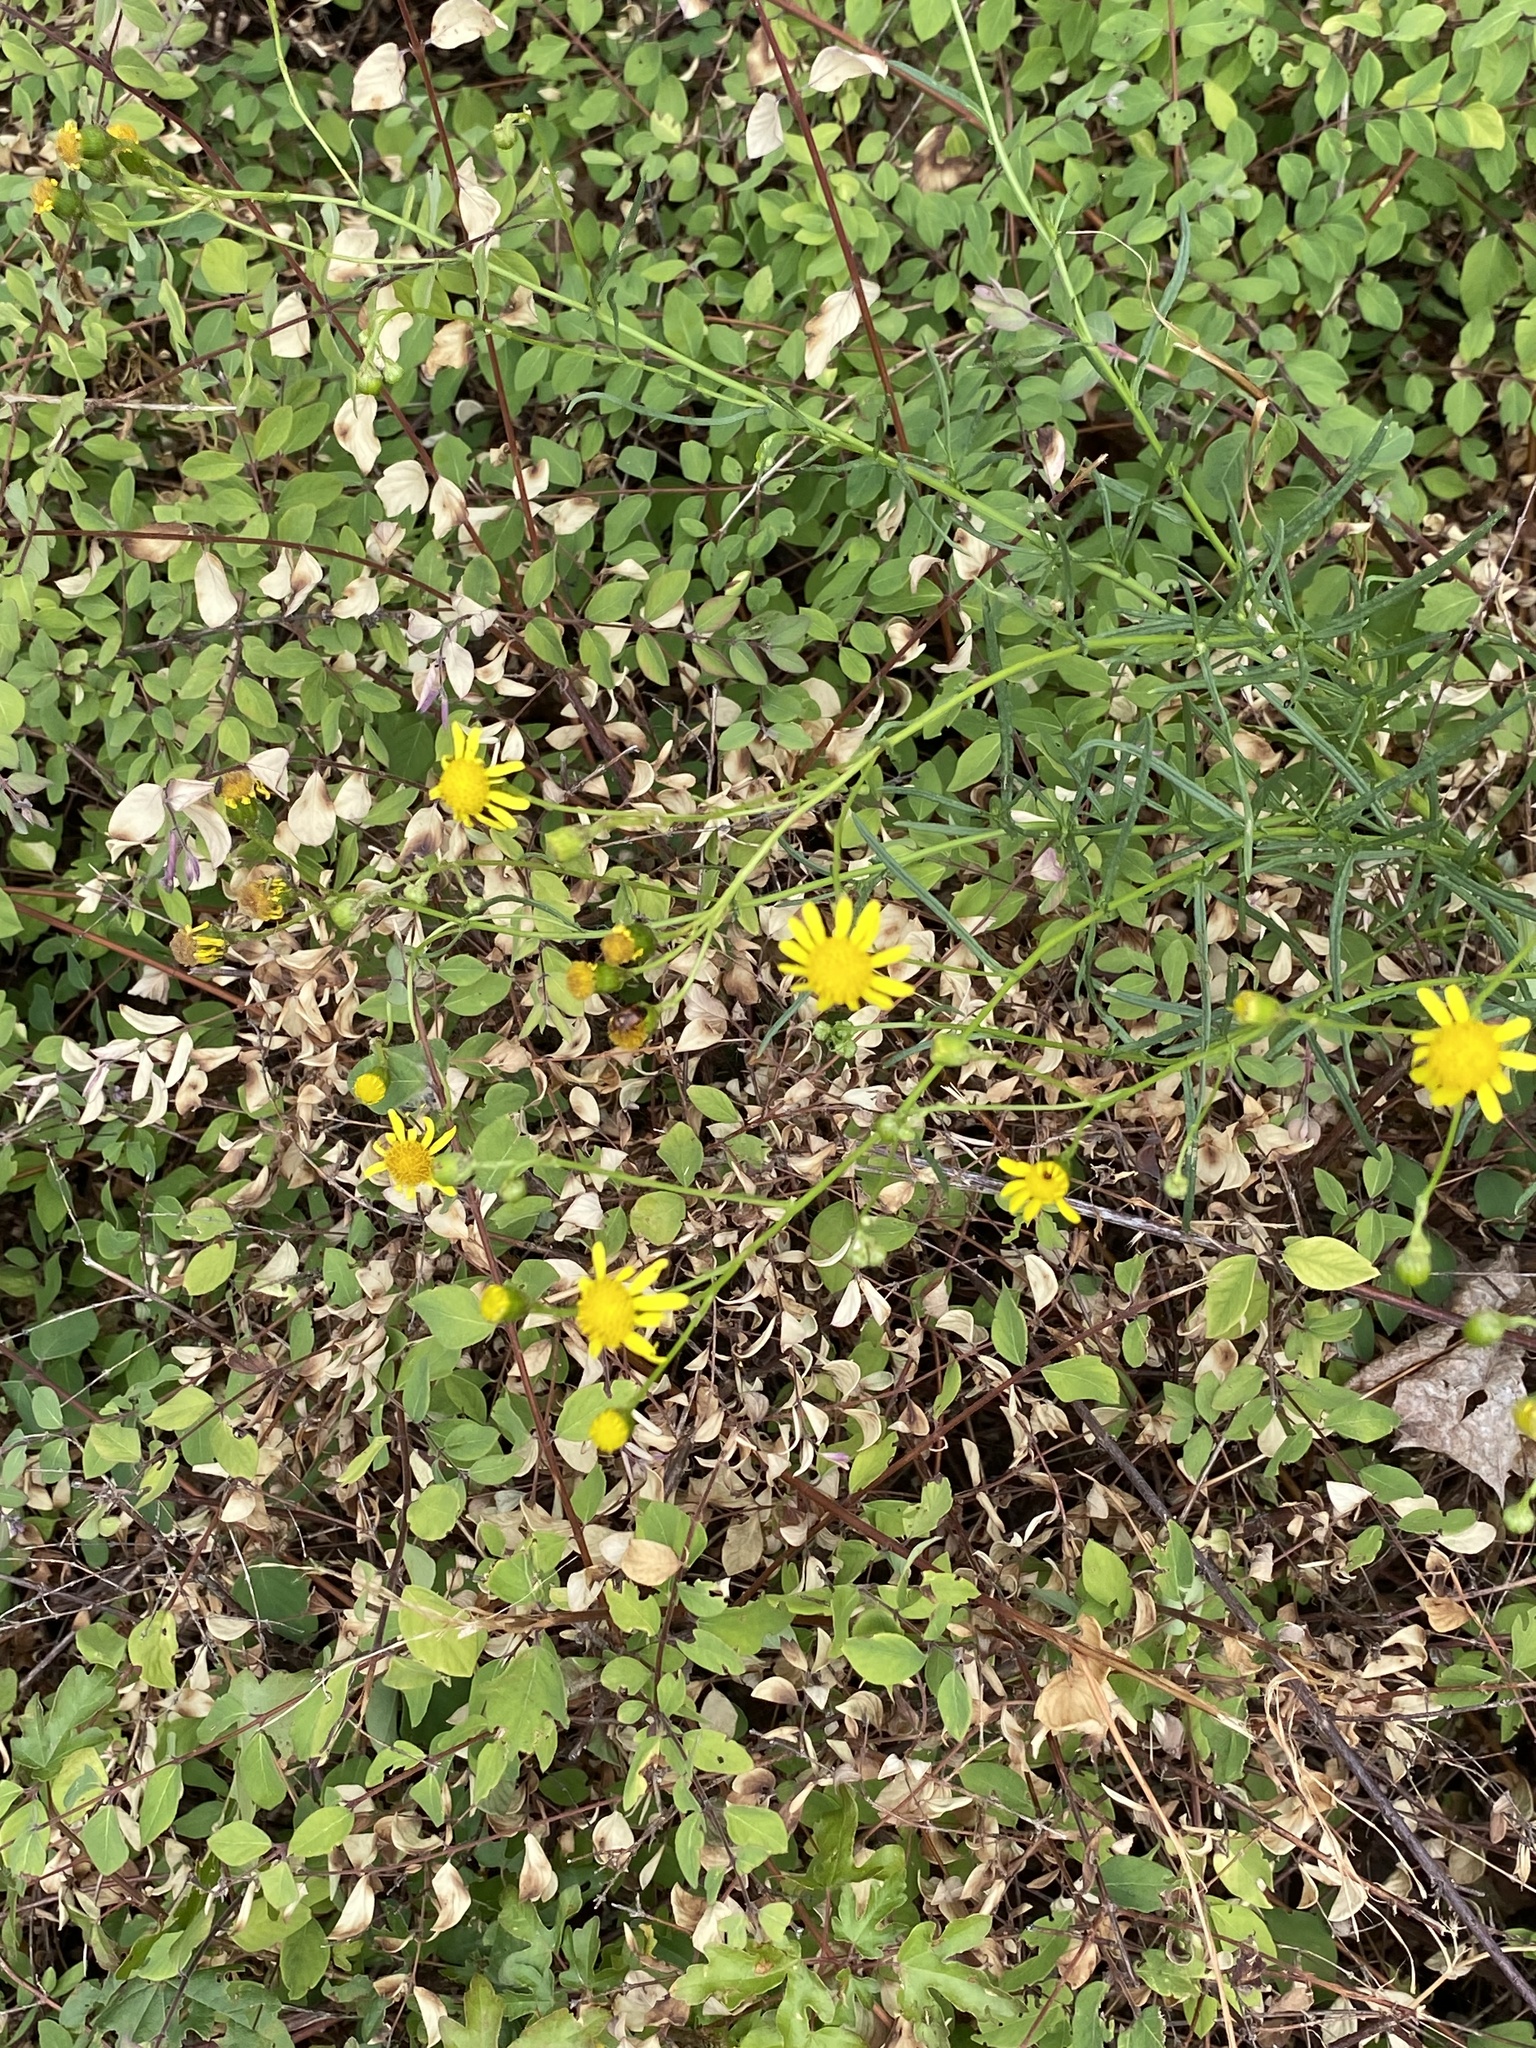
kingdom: Plantae
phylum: Tracheophyta
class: Magnoliopsida
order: Asterales
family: Asteraceae
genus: Senecio
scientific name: Senecio inaequidens
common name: Narrow-leaved ragwort
